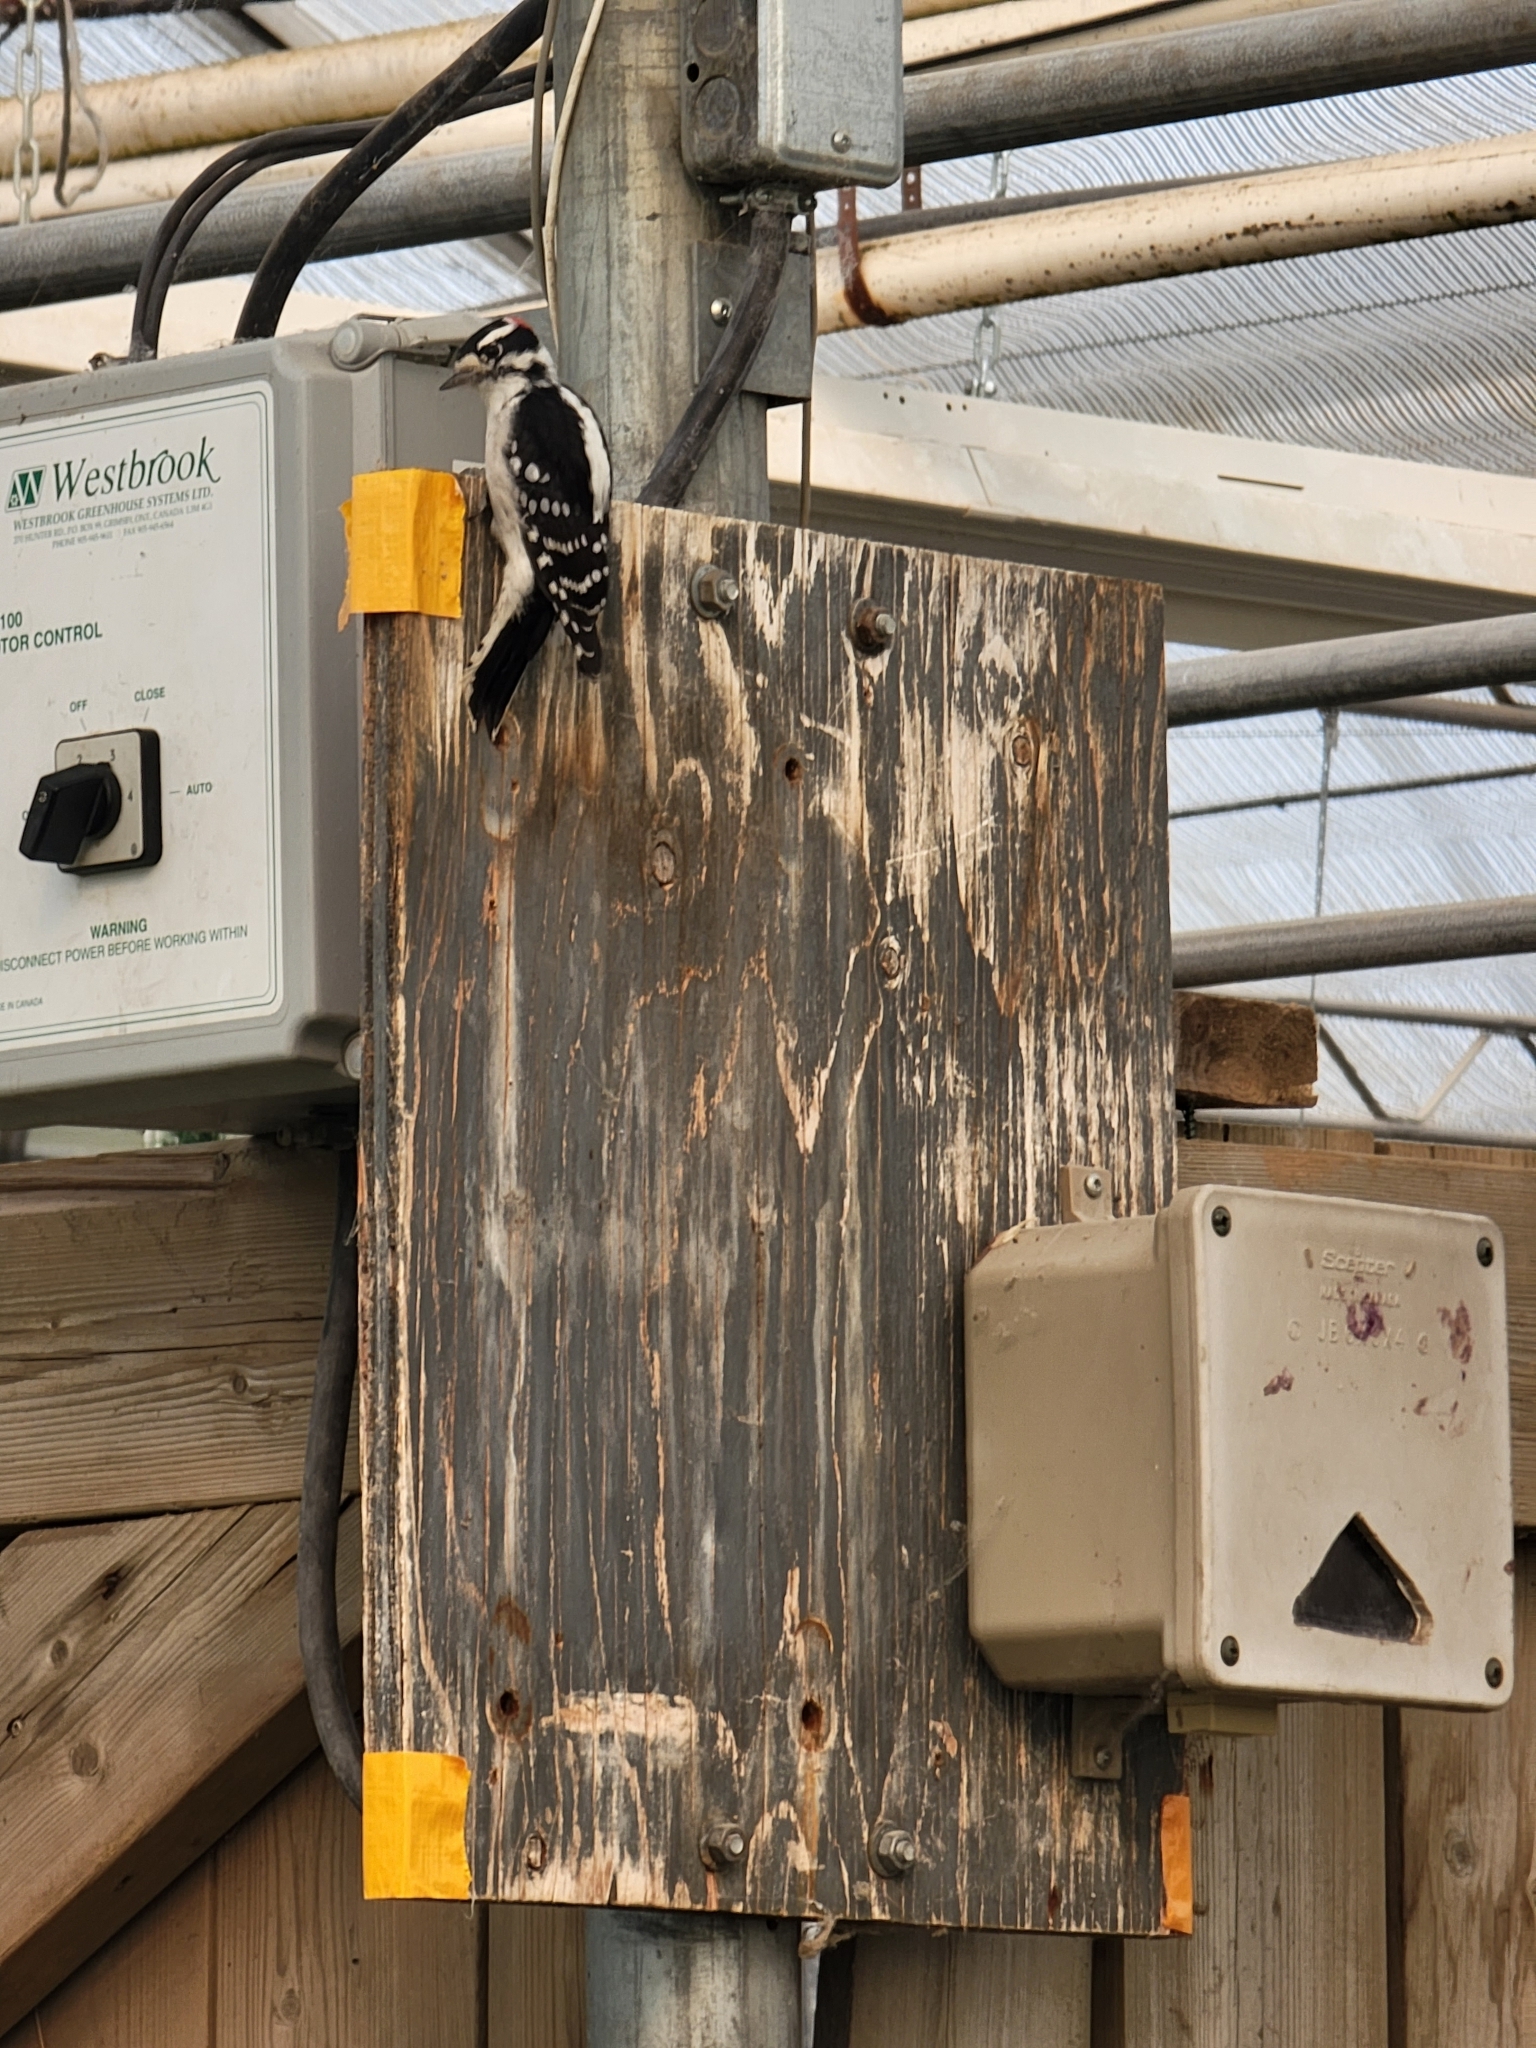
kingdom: Animalia
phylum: Chordata
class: Aves
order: Piciformes
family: Picidae
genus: Dryobates
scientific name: Dryobates pubescens
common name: Downy woodpecker
